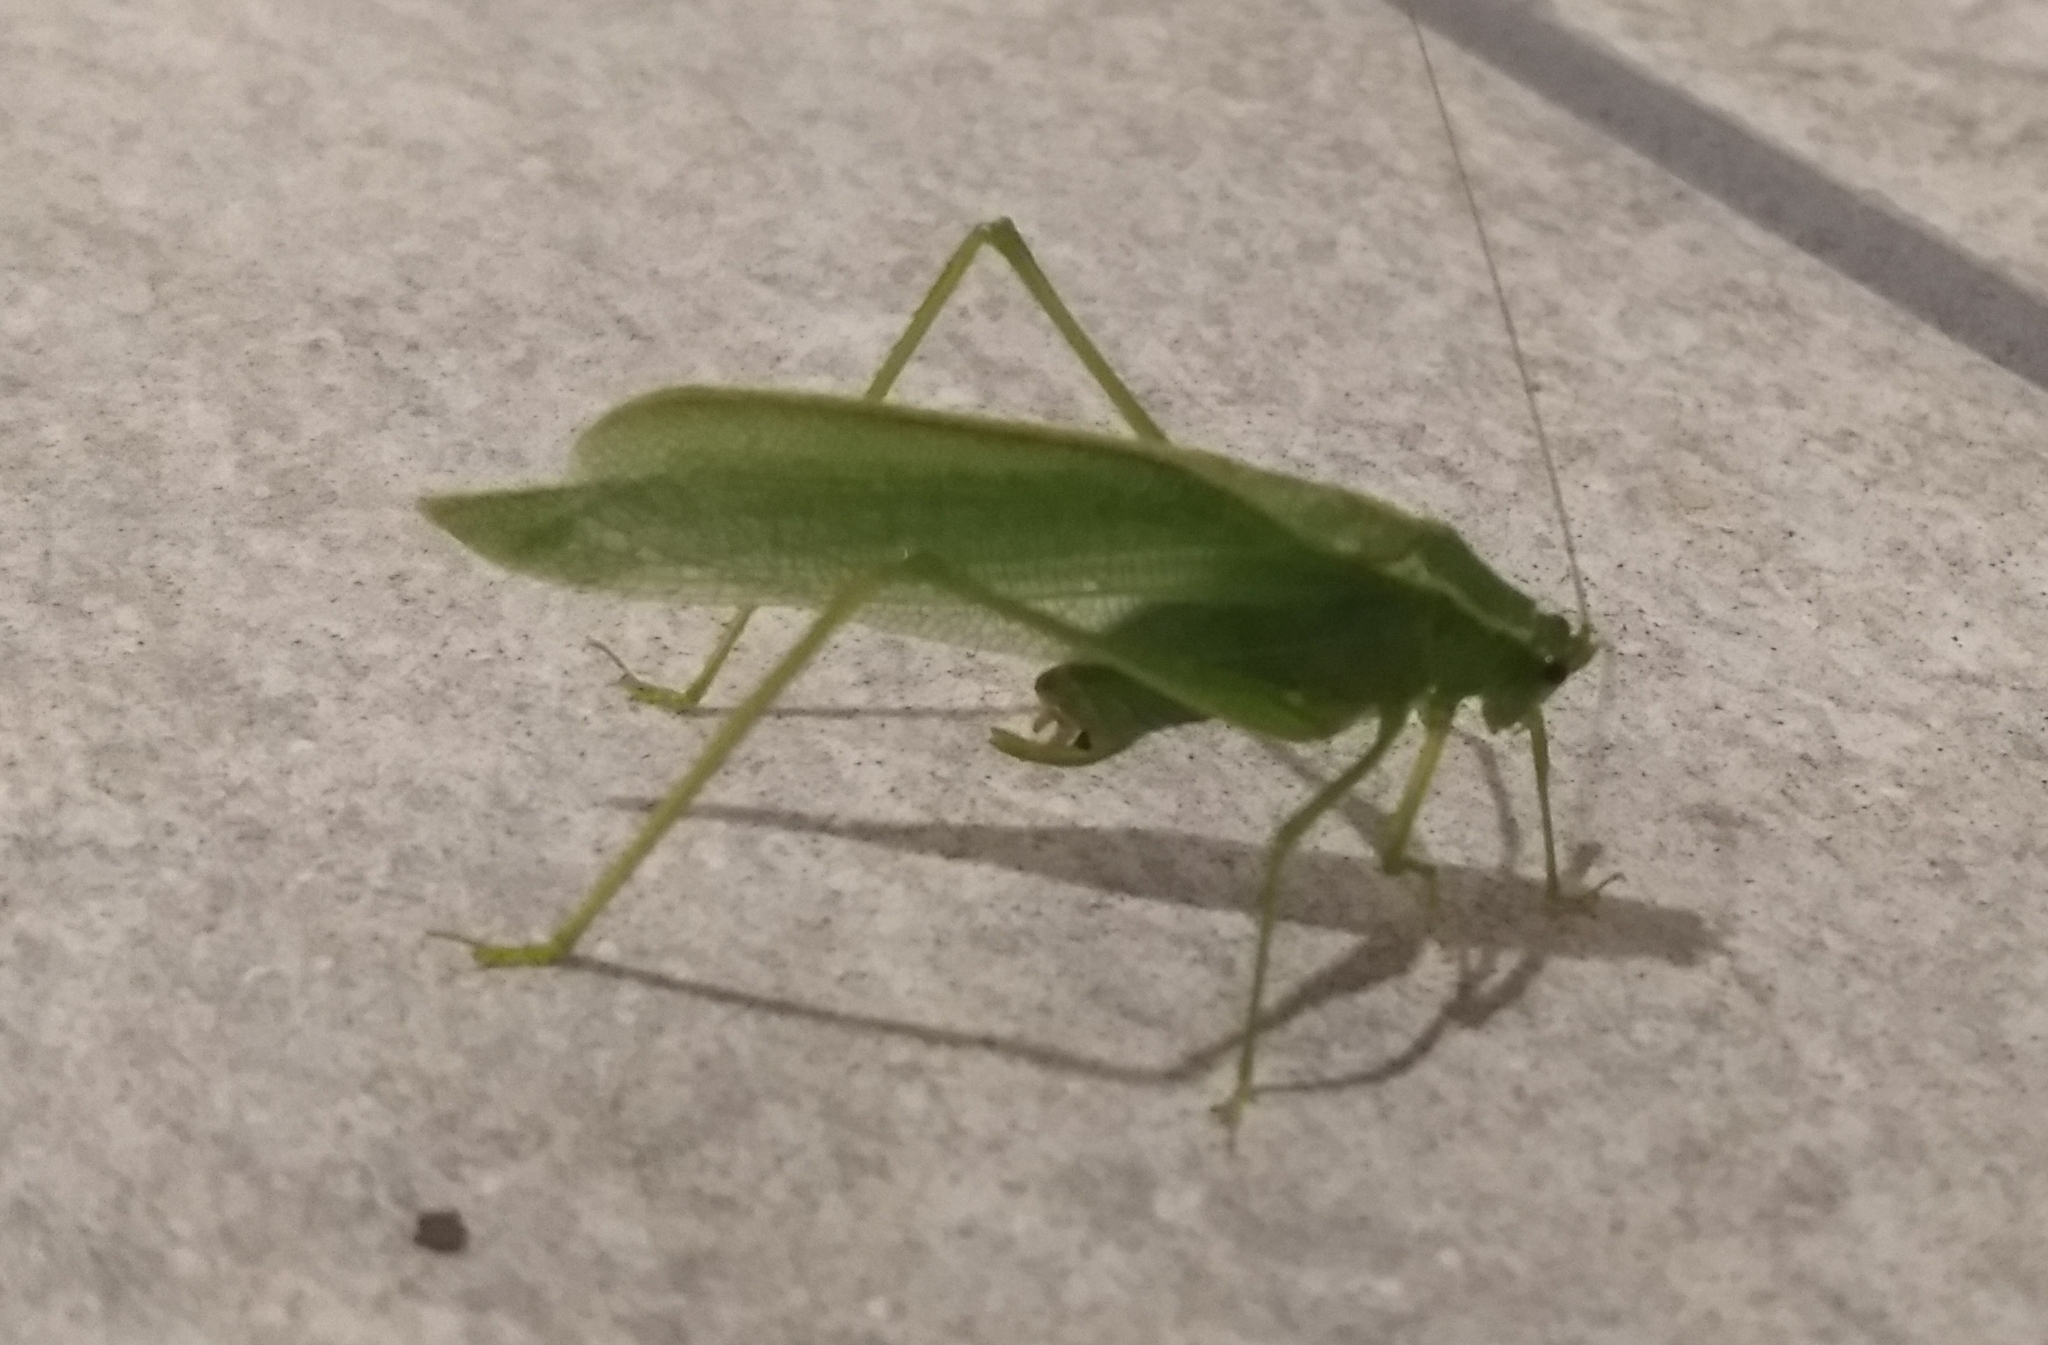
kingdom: Animalia
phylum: Arthropoda
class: Insecta
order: Orthoptera
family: Tettigoniidae
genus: Scudderia
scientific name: Scudderia septentrionalis
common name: Northern bush-katydid
